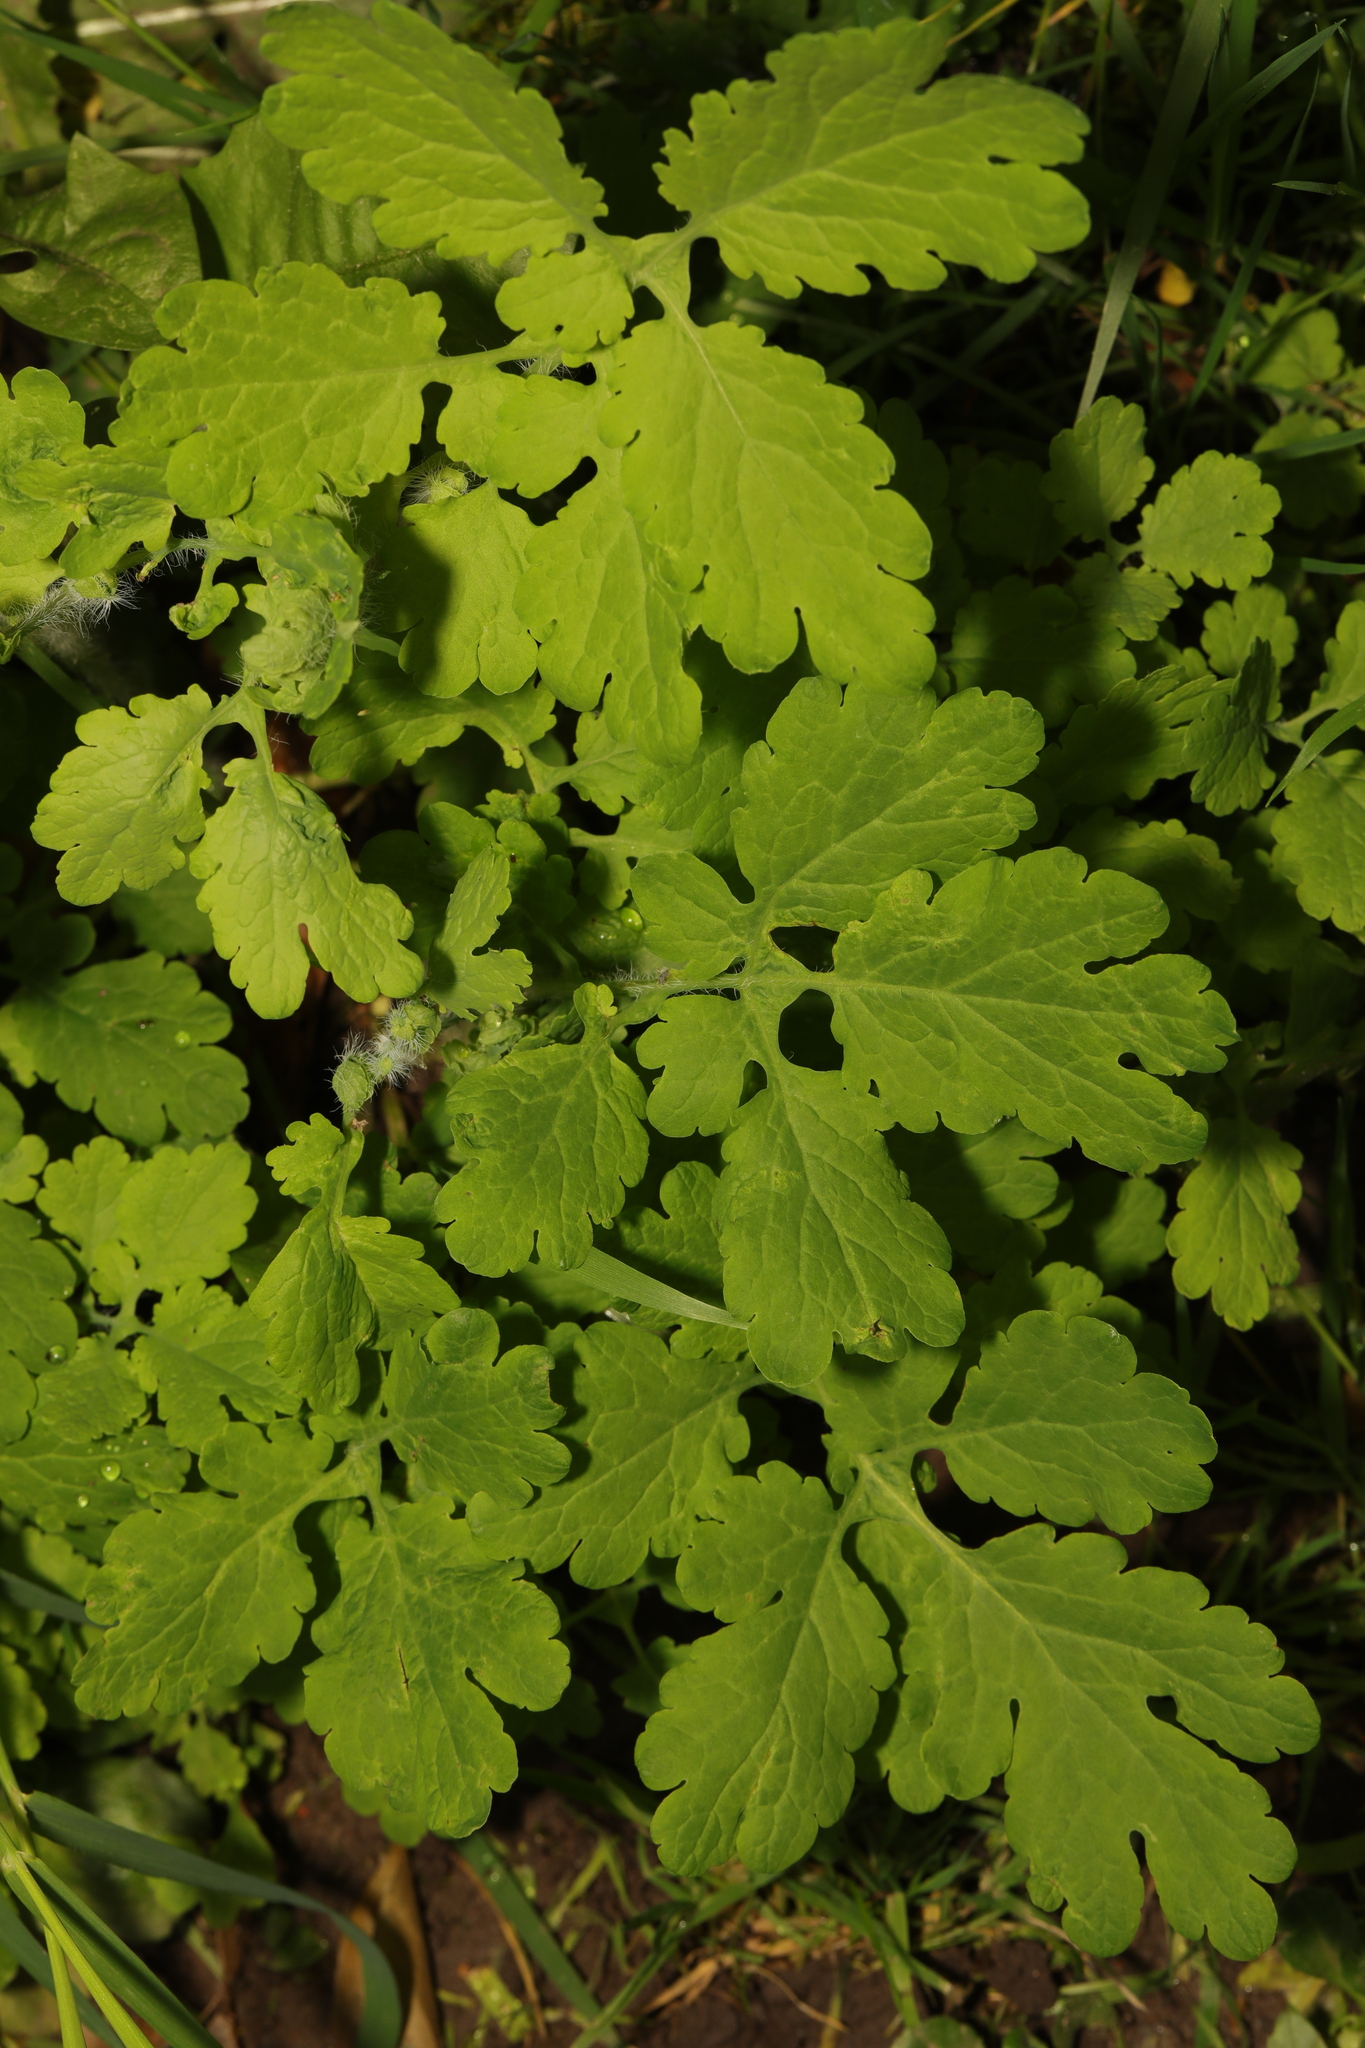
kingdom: Plantae
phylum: Tracheophyta
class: Magnoliopsida
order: Ranunculales
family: Papaveraceae
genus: Chelidonium
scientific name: Chelidonium majus
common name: Greater celandine
